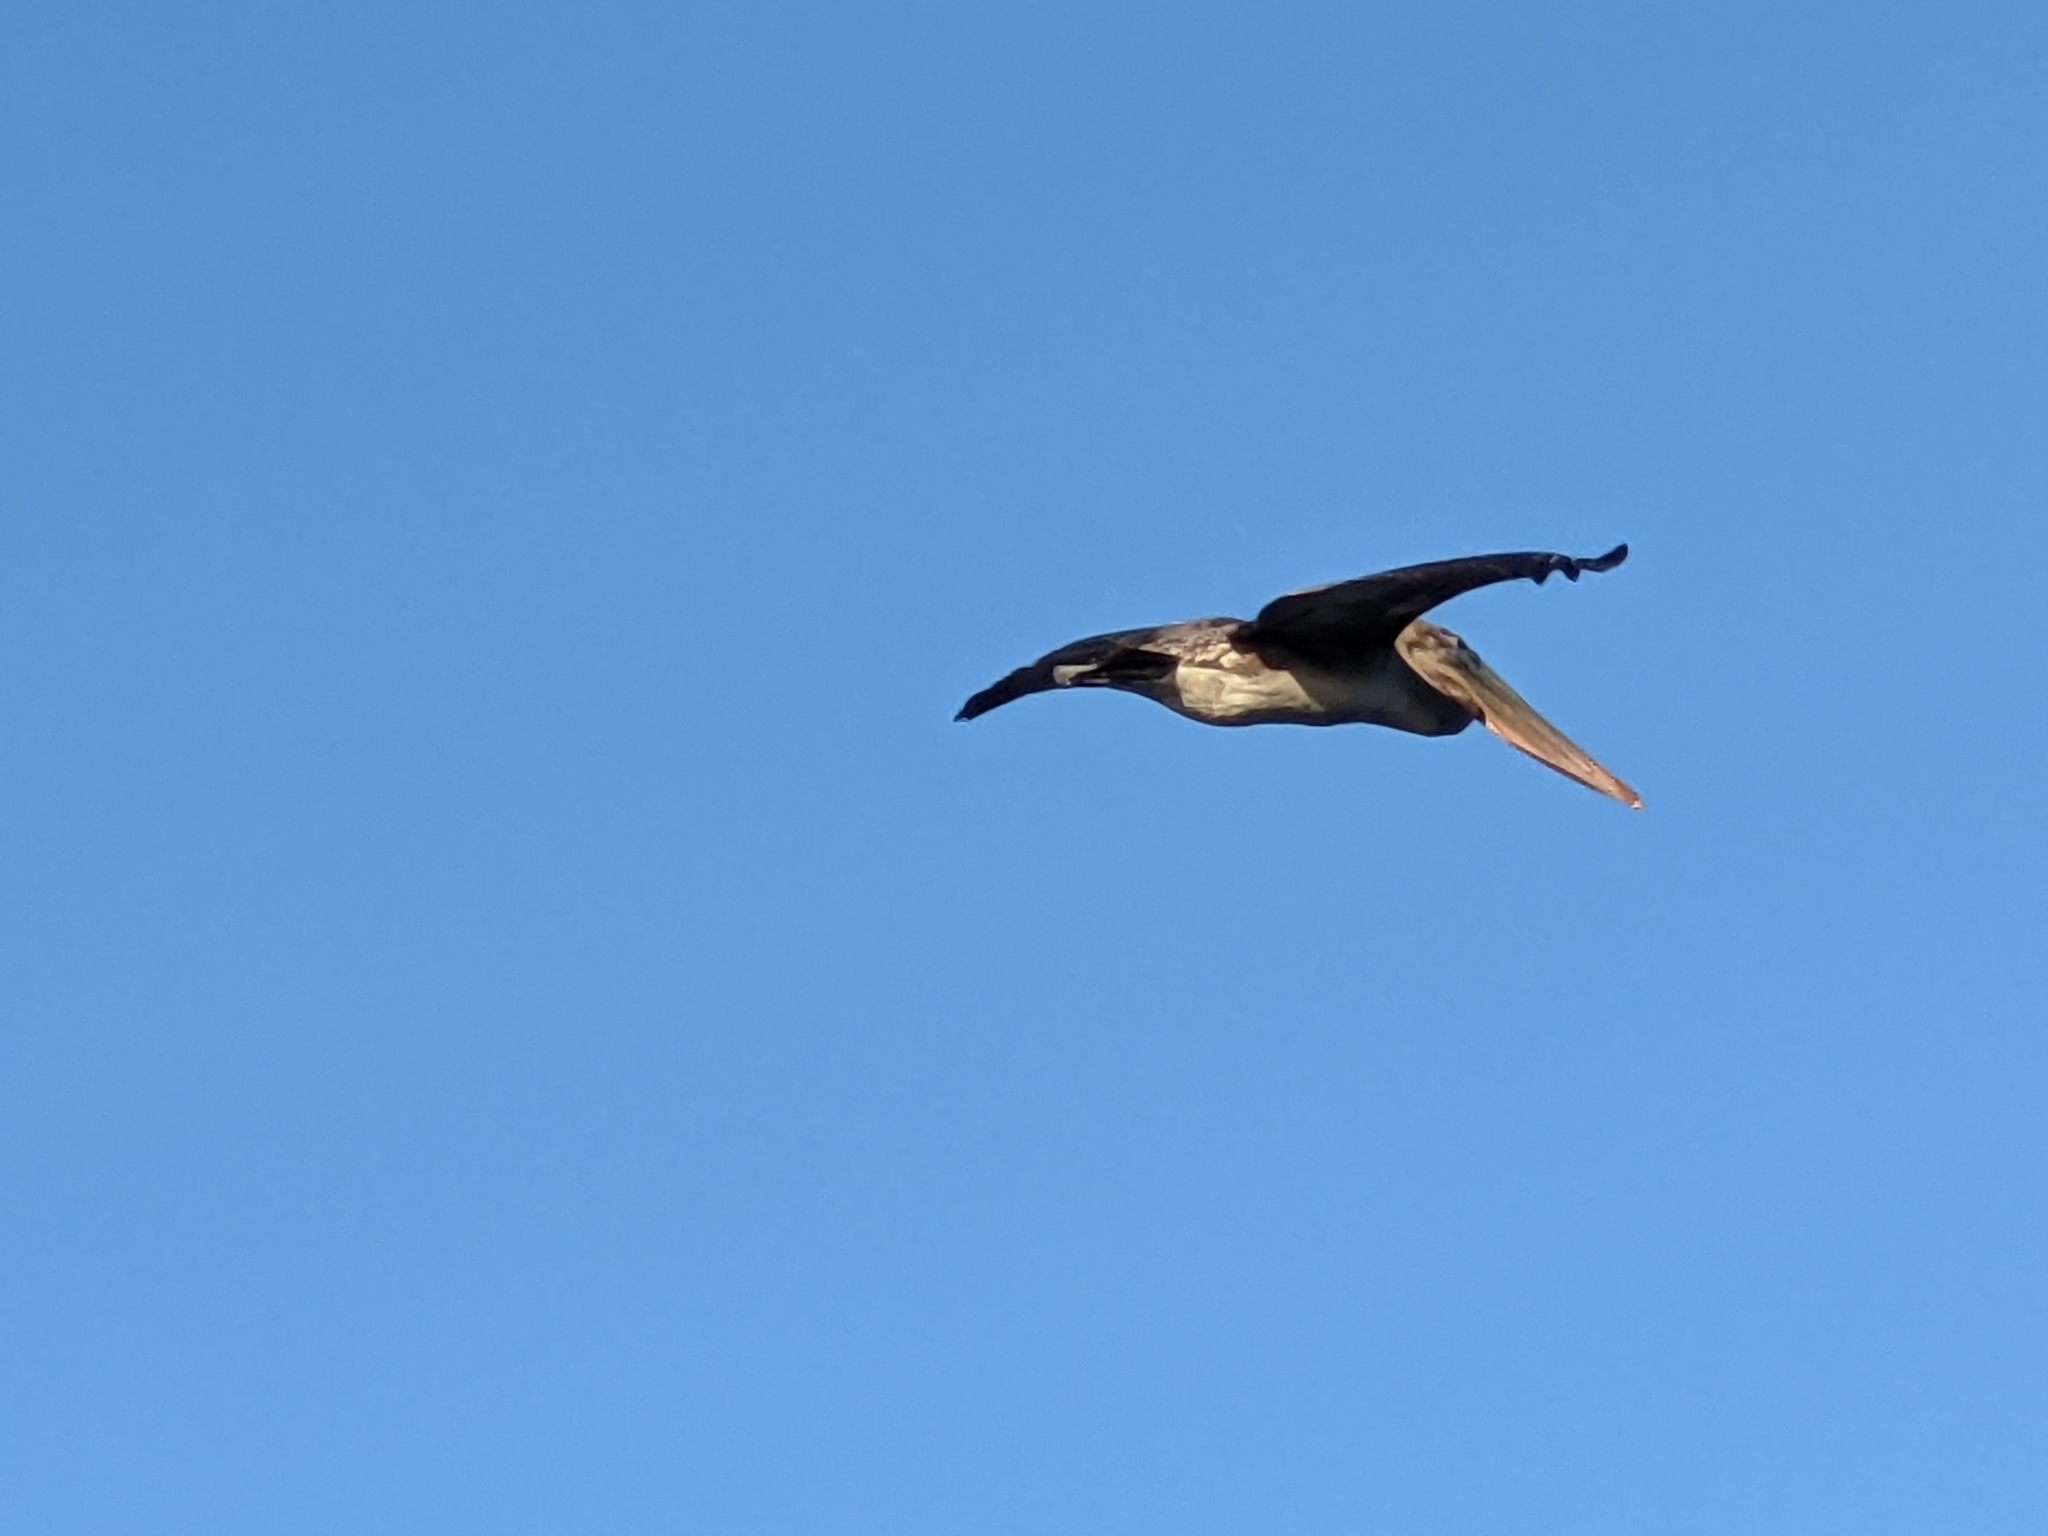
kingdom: Animalia
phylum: Chordata
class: Aves
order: Pelecaniformes
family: Pelecanidae
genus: Pelecanus
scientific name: Pelecanus occidentalis
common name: Brown pelican
